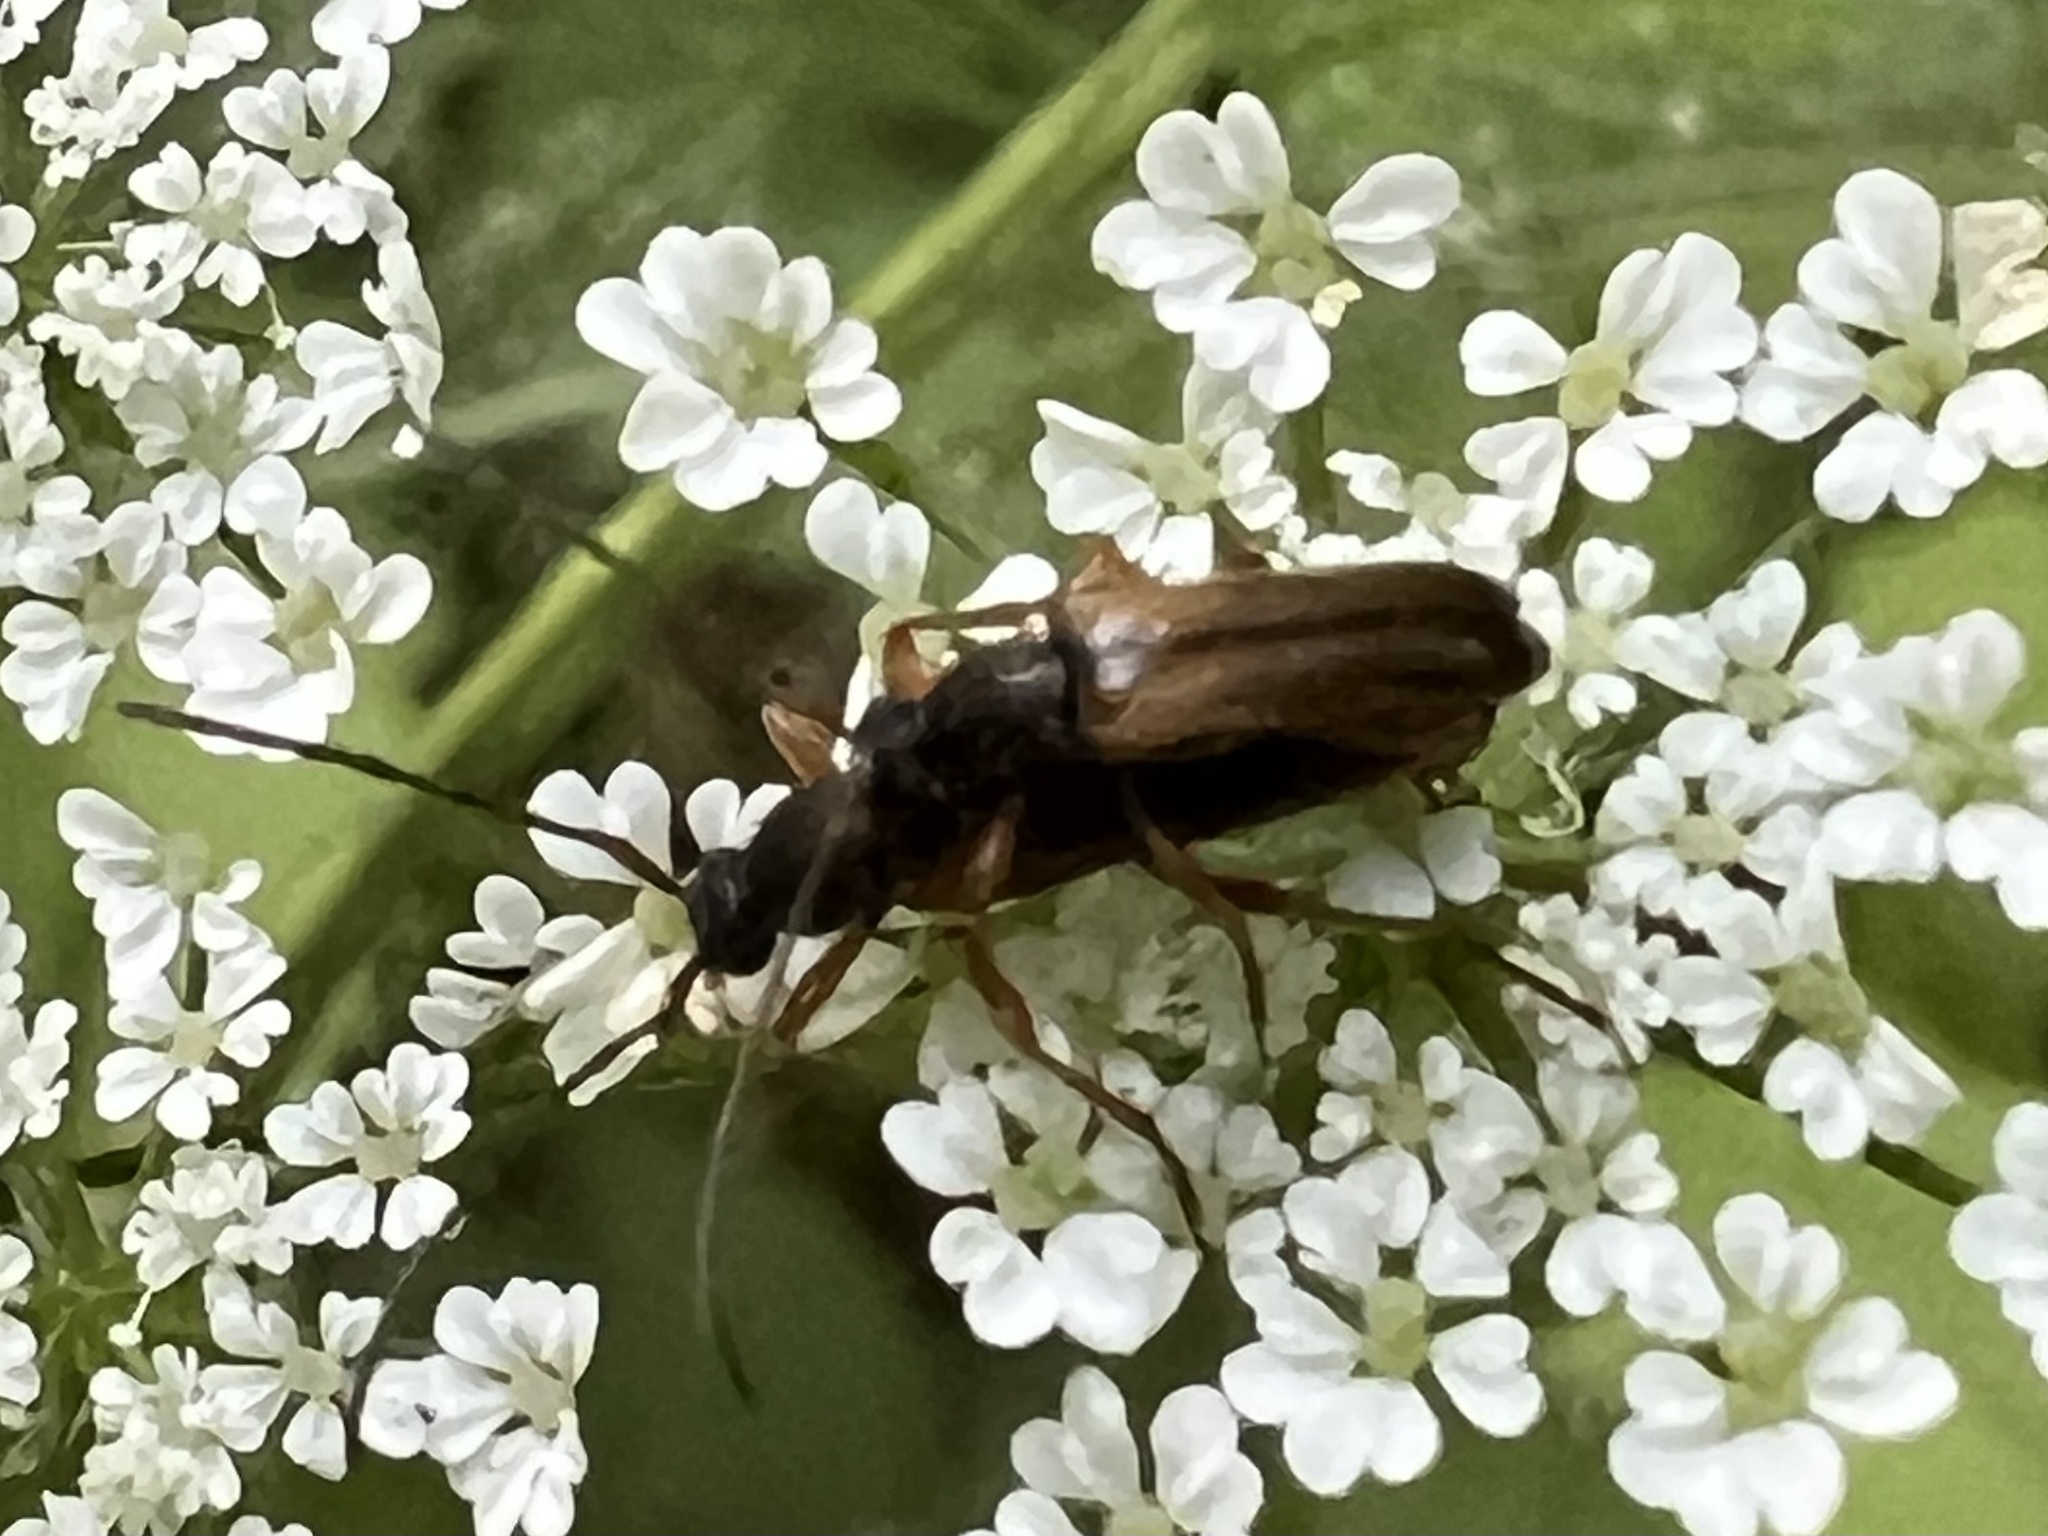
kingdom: Animalia
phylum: Arthropoda
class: Insecta
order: Coleoptera
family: Cerambycidae
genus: Alosterna
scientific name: Alosterna tabacicolor
